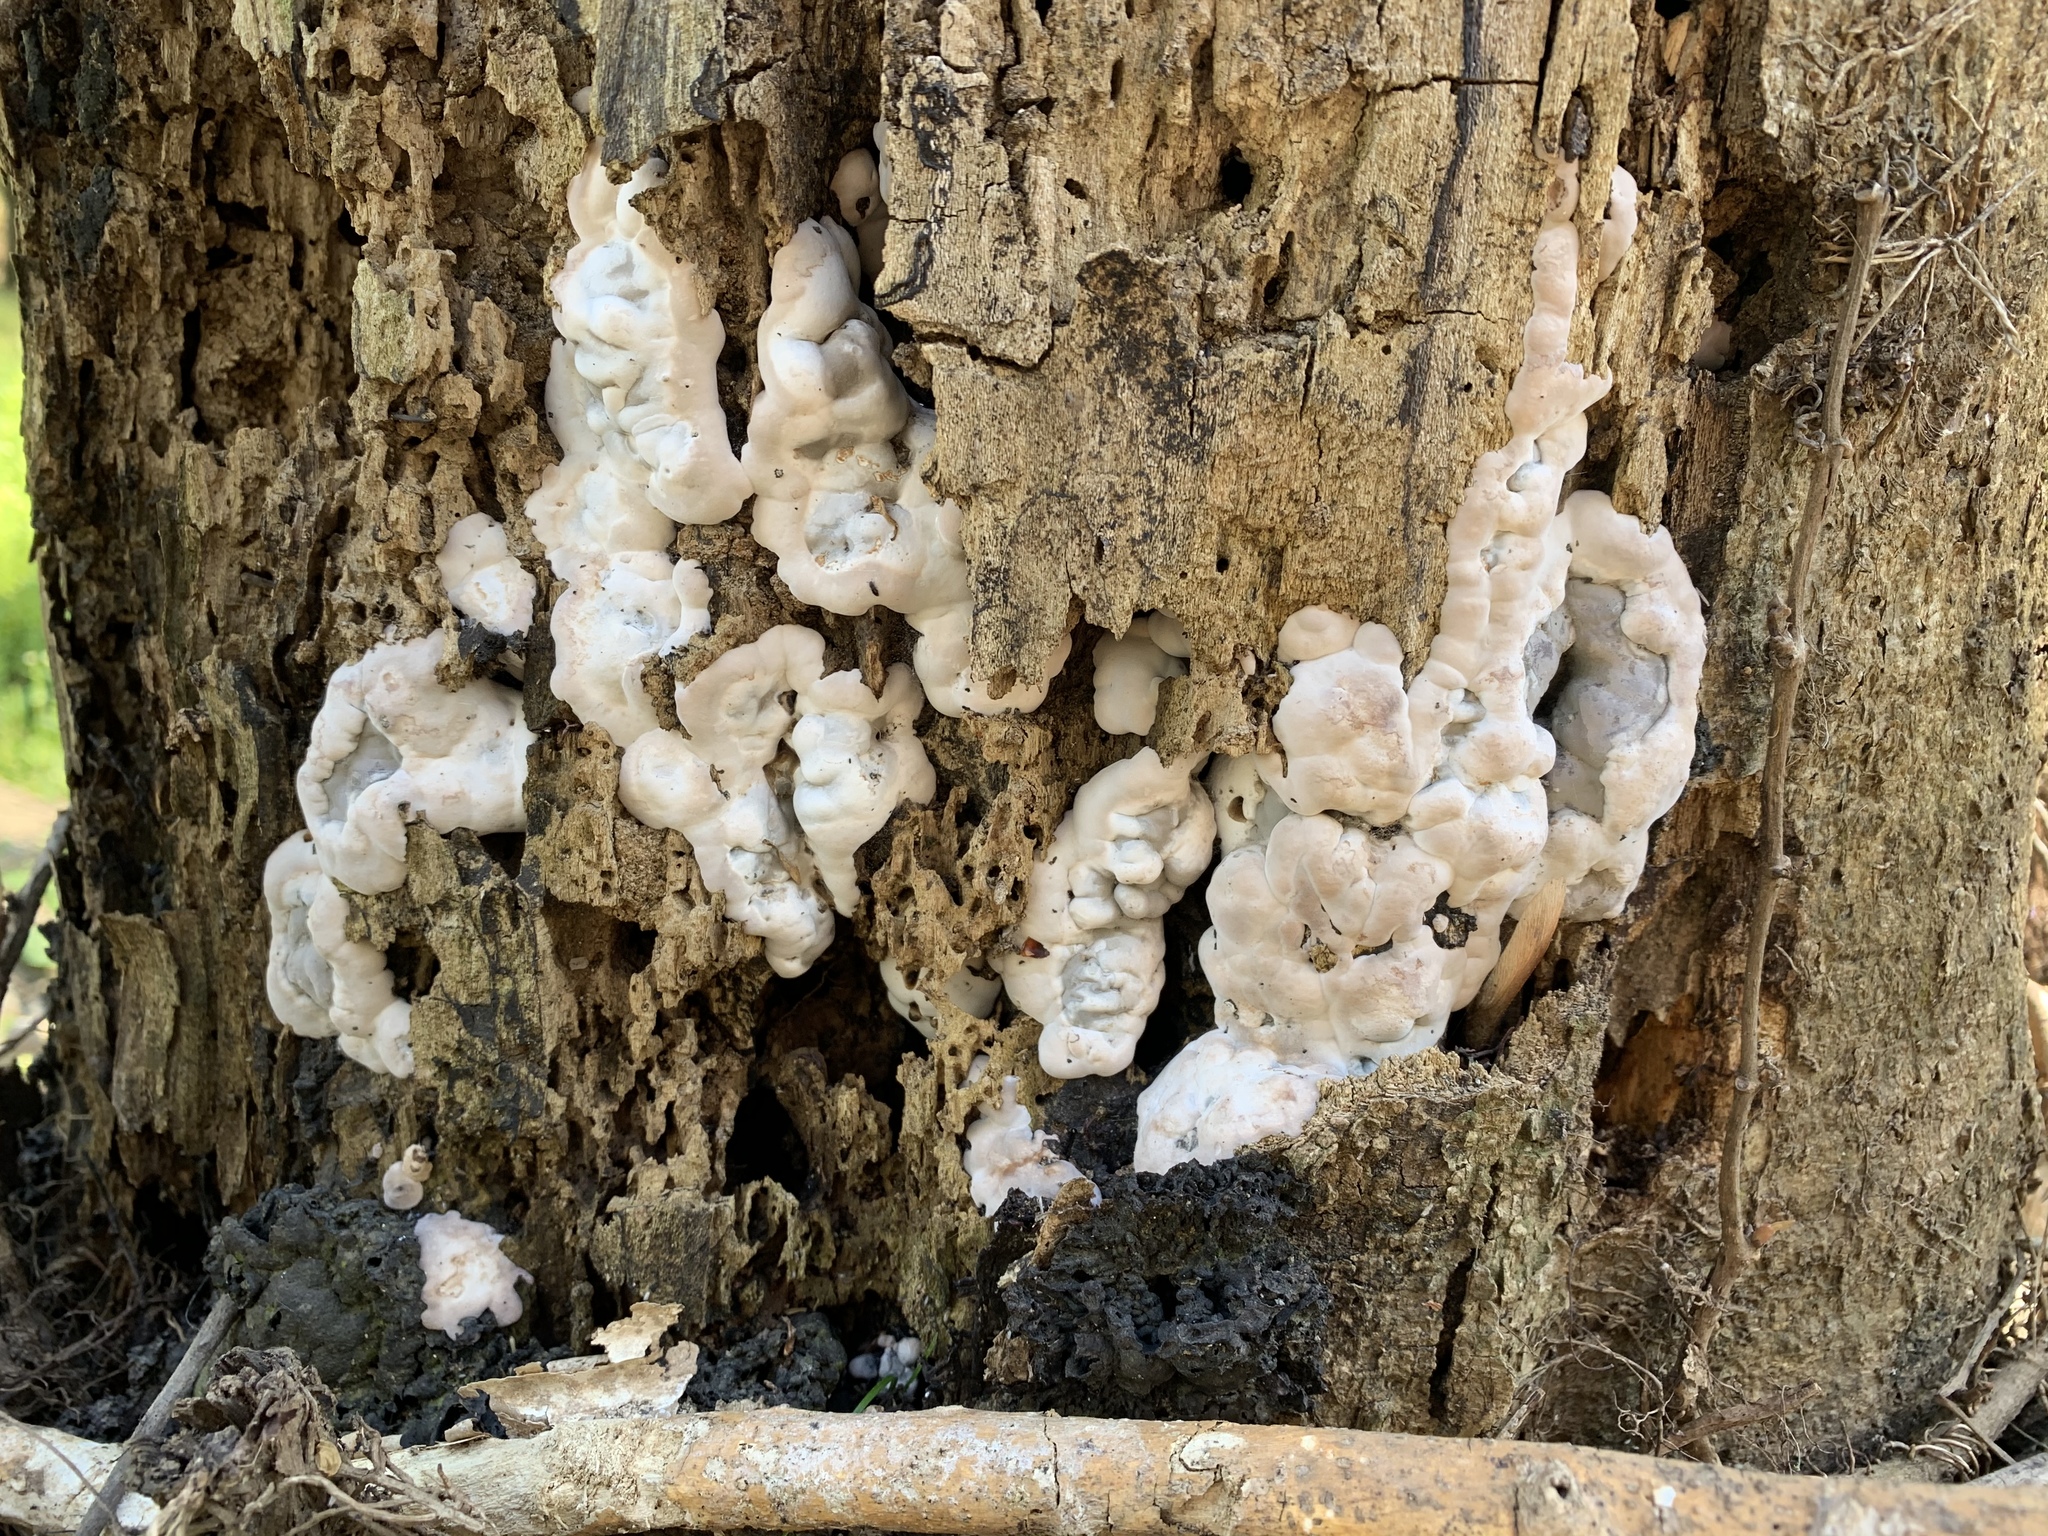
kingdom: Fungi
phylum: Ascomycota
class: Sordariomycetes
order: Xylariales
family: Xylariaceae
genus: Kretzschmaria
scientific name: Kretzschmaria deusta
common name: Brittle cinder
